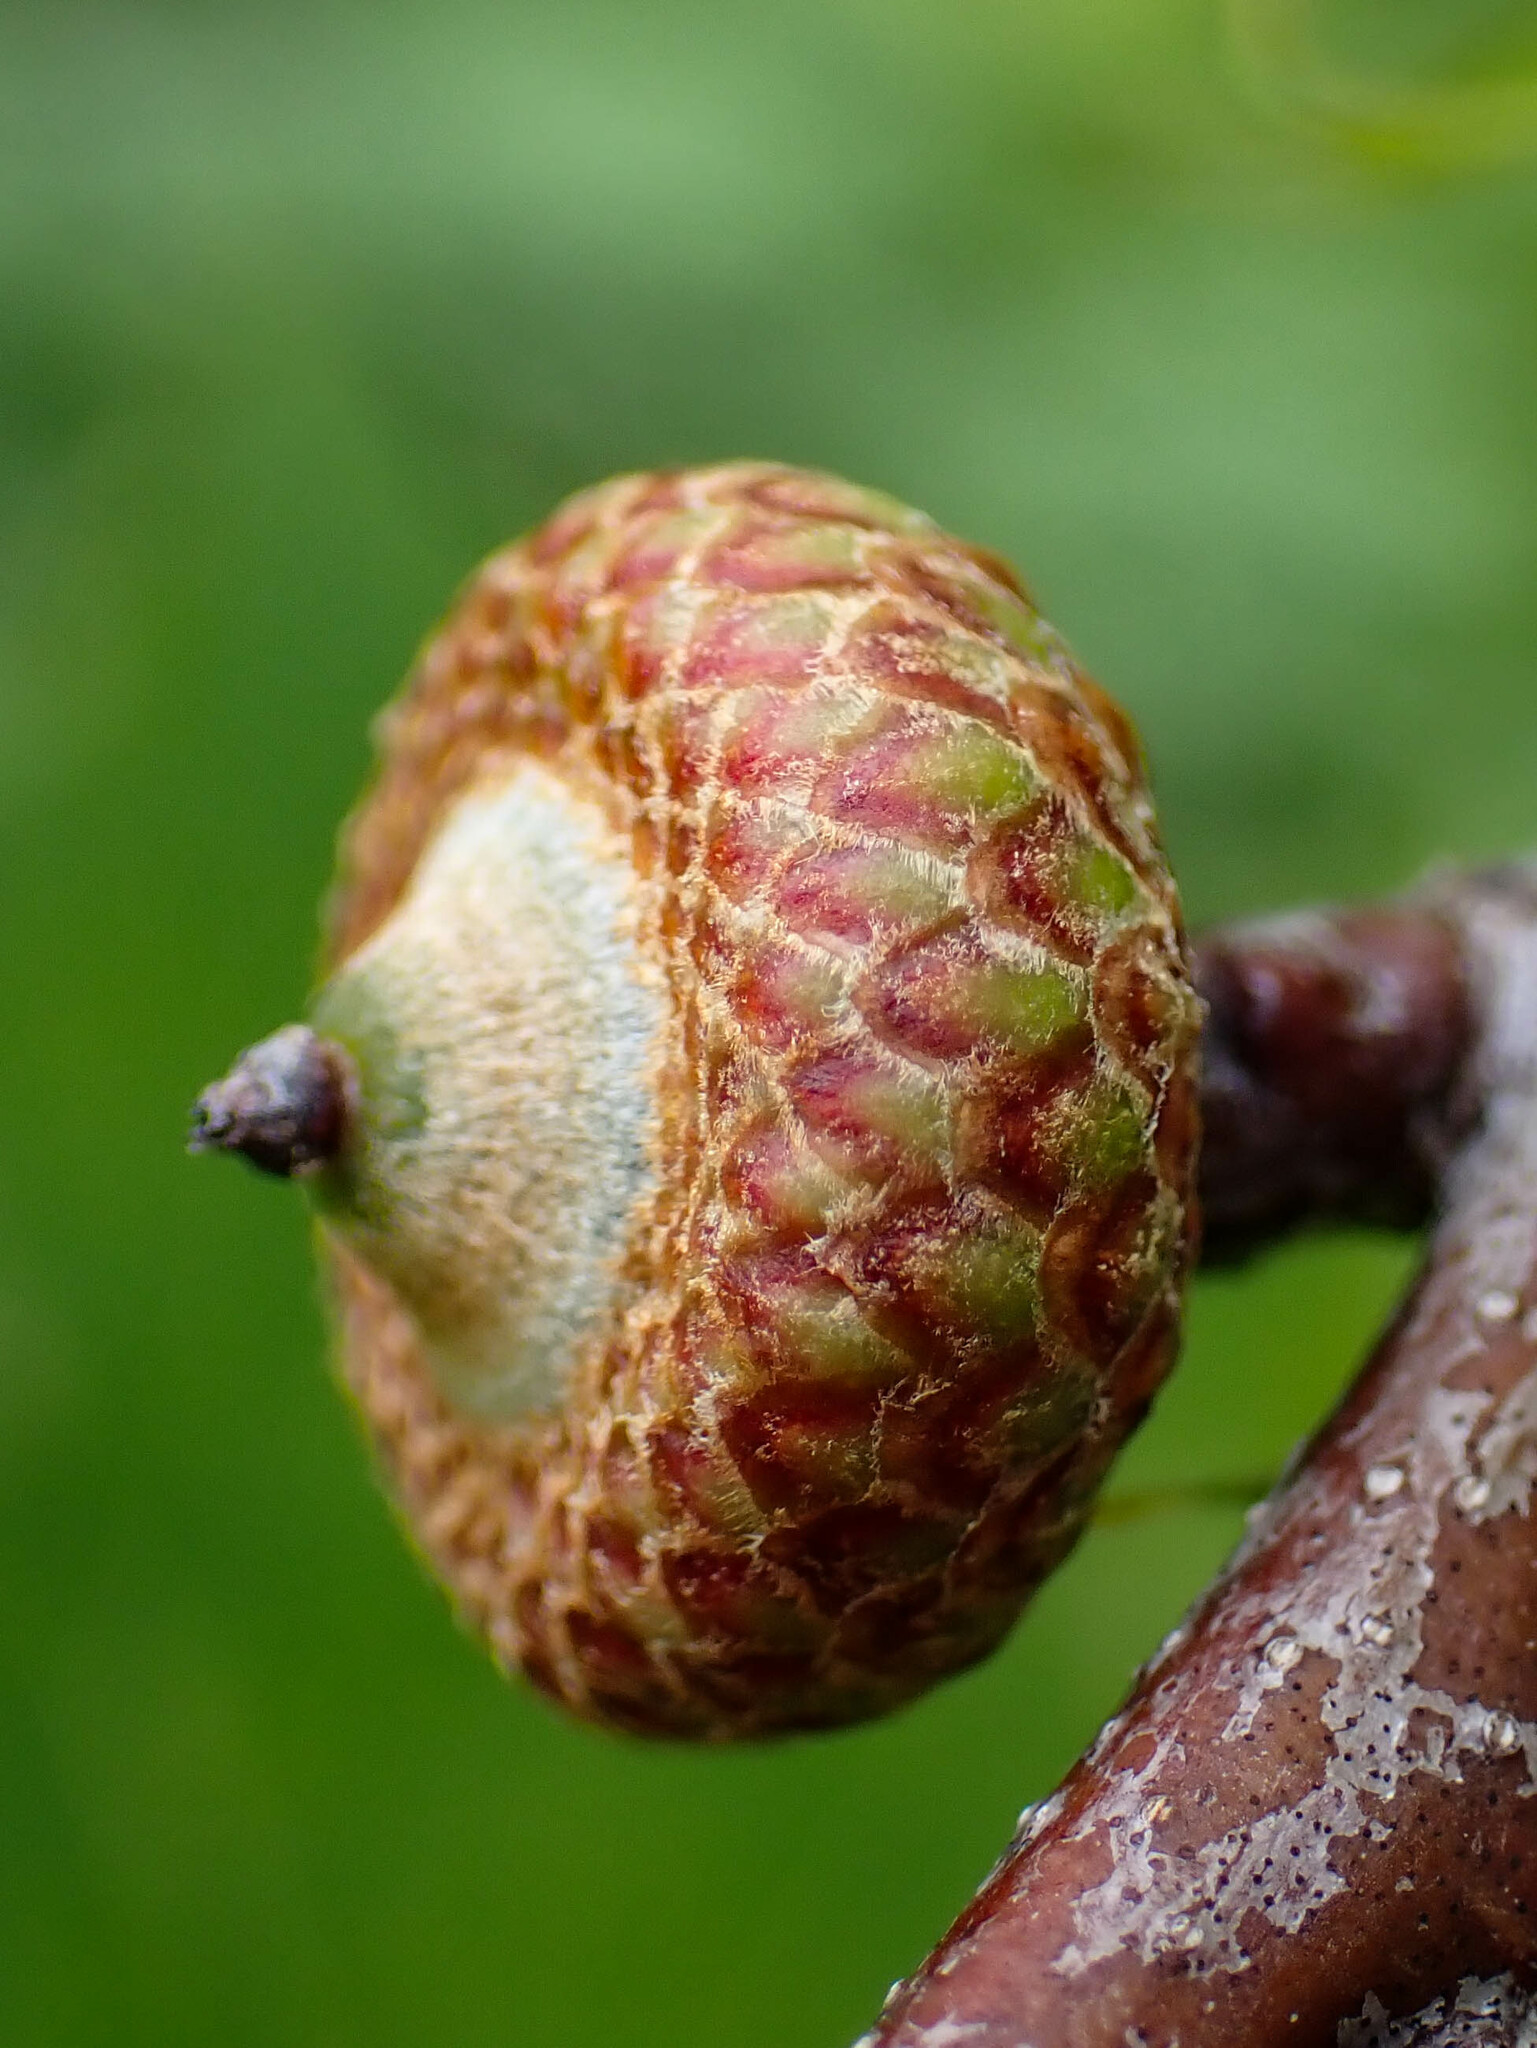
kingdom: Plantae
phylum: Tracheophyta
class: Magnoliopsida
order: Fagales
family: Fagaceae
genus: Quercus
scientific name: Quercus rubra
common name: Red oak
